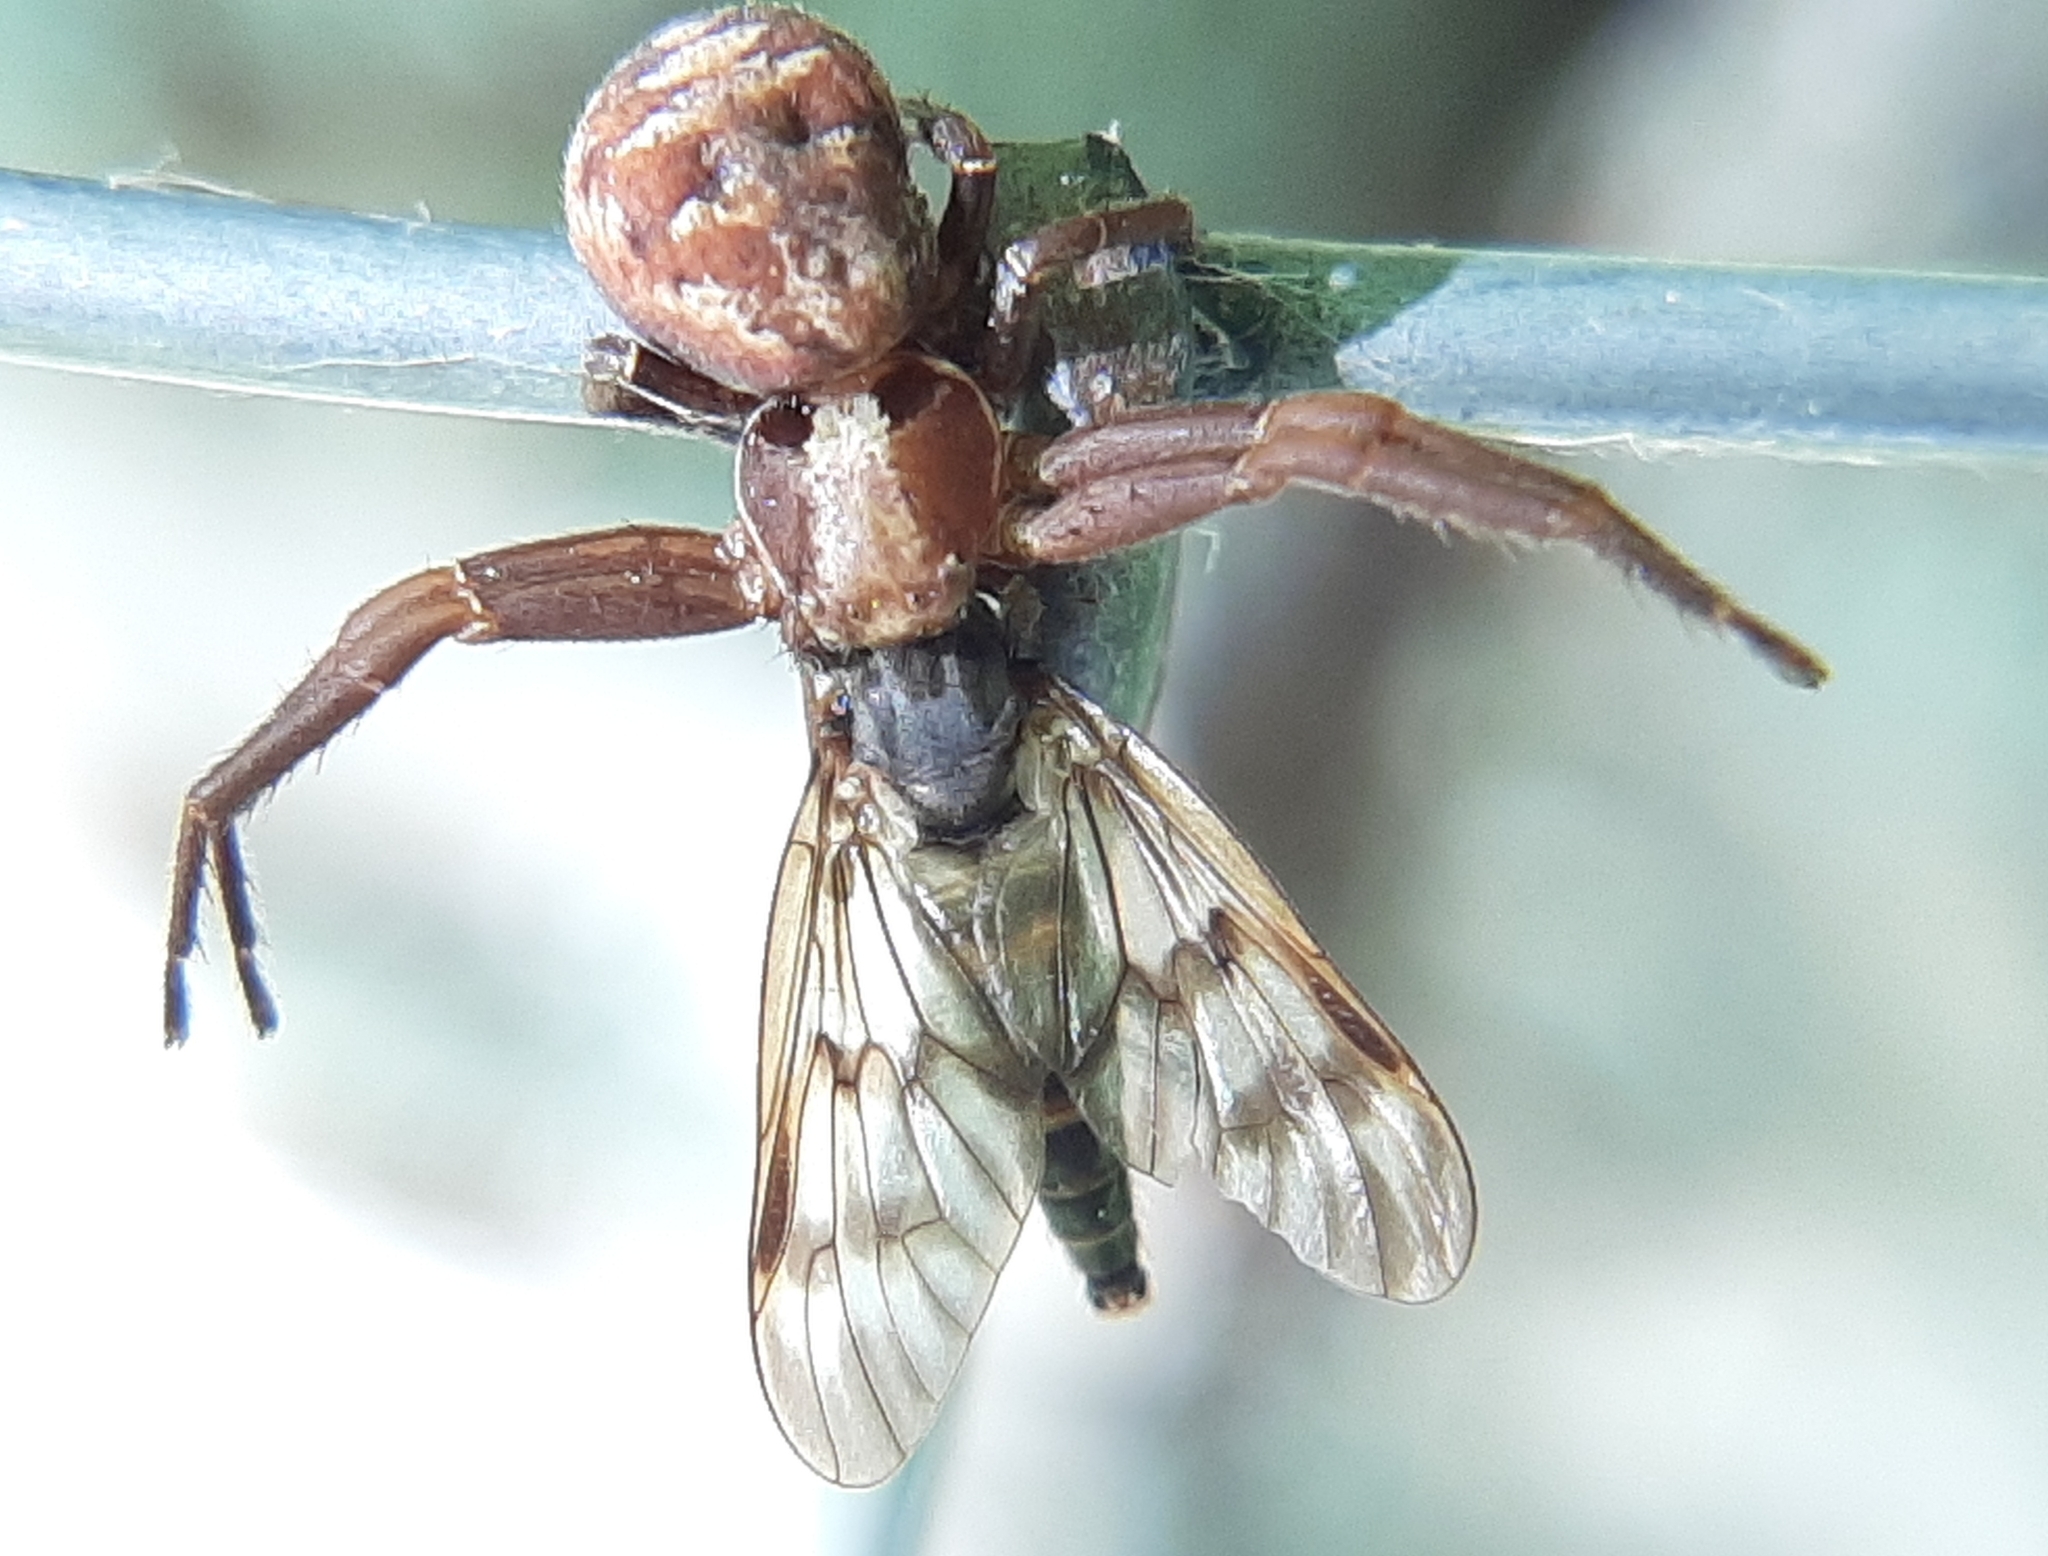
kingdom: Animalia
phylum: Arthropoda
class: Insecta
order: Diptera
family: Rhagionidae
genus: Rhagio
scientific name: Rhagio mystaceus
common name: Common snipe fly
